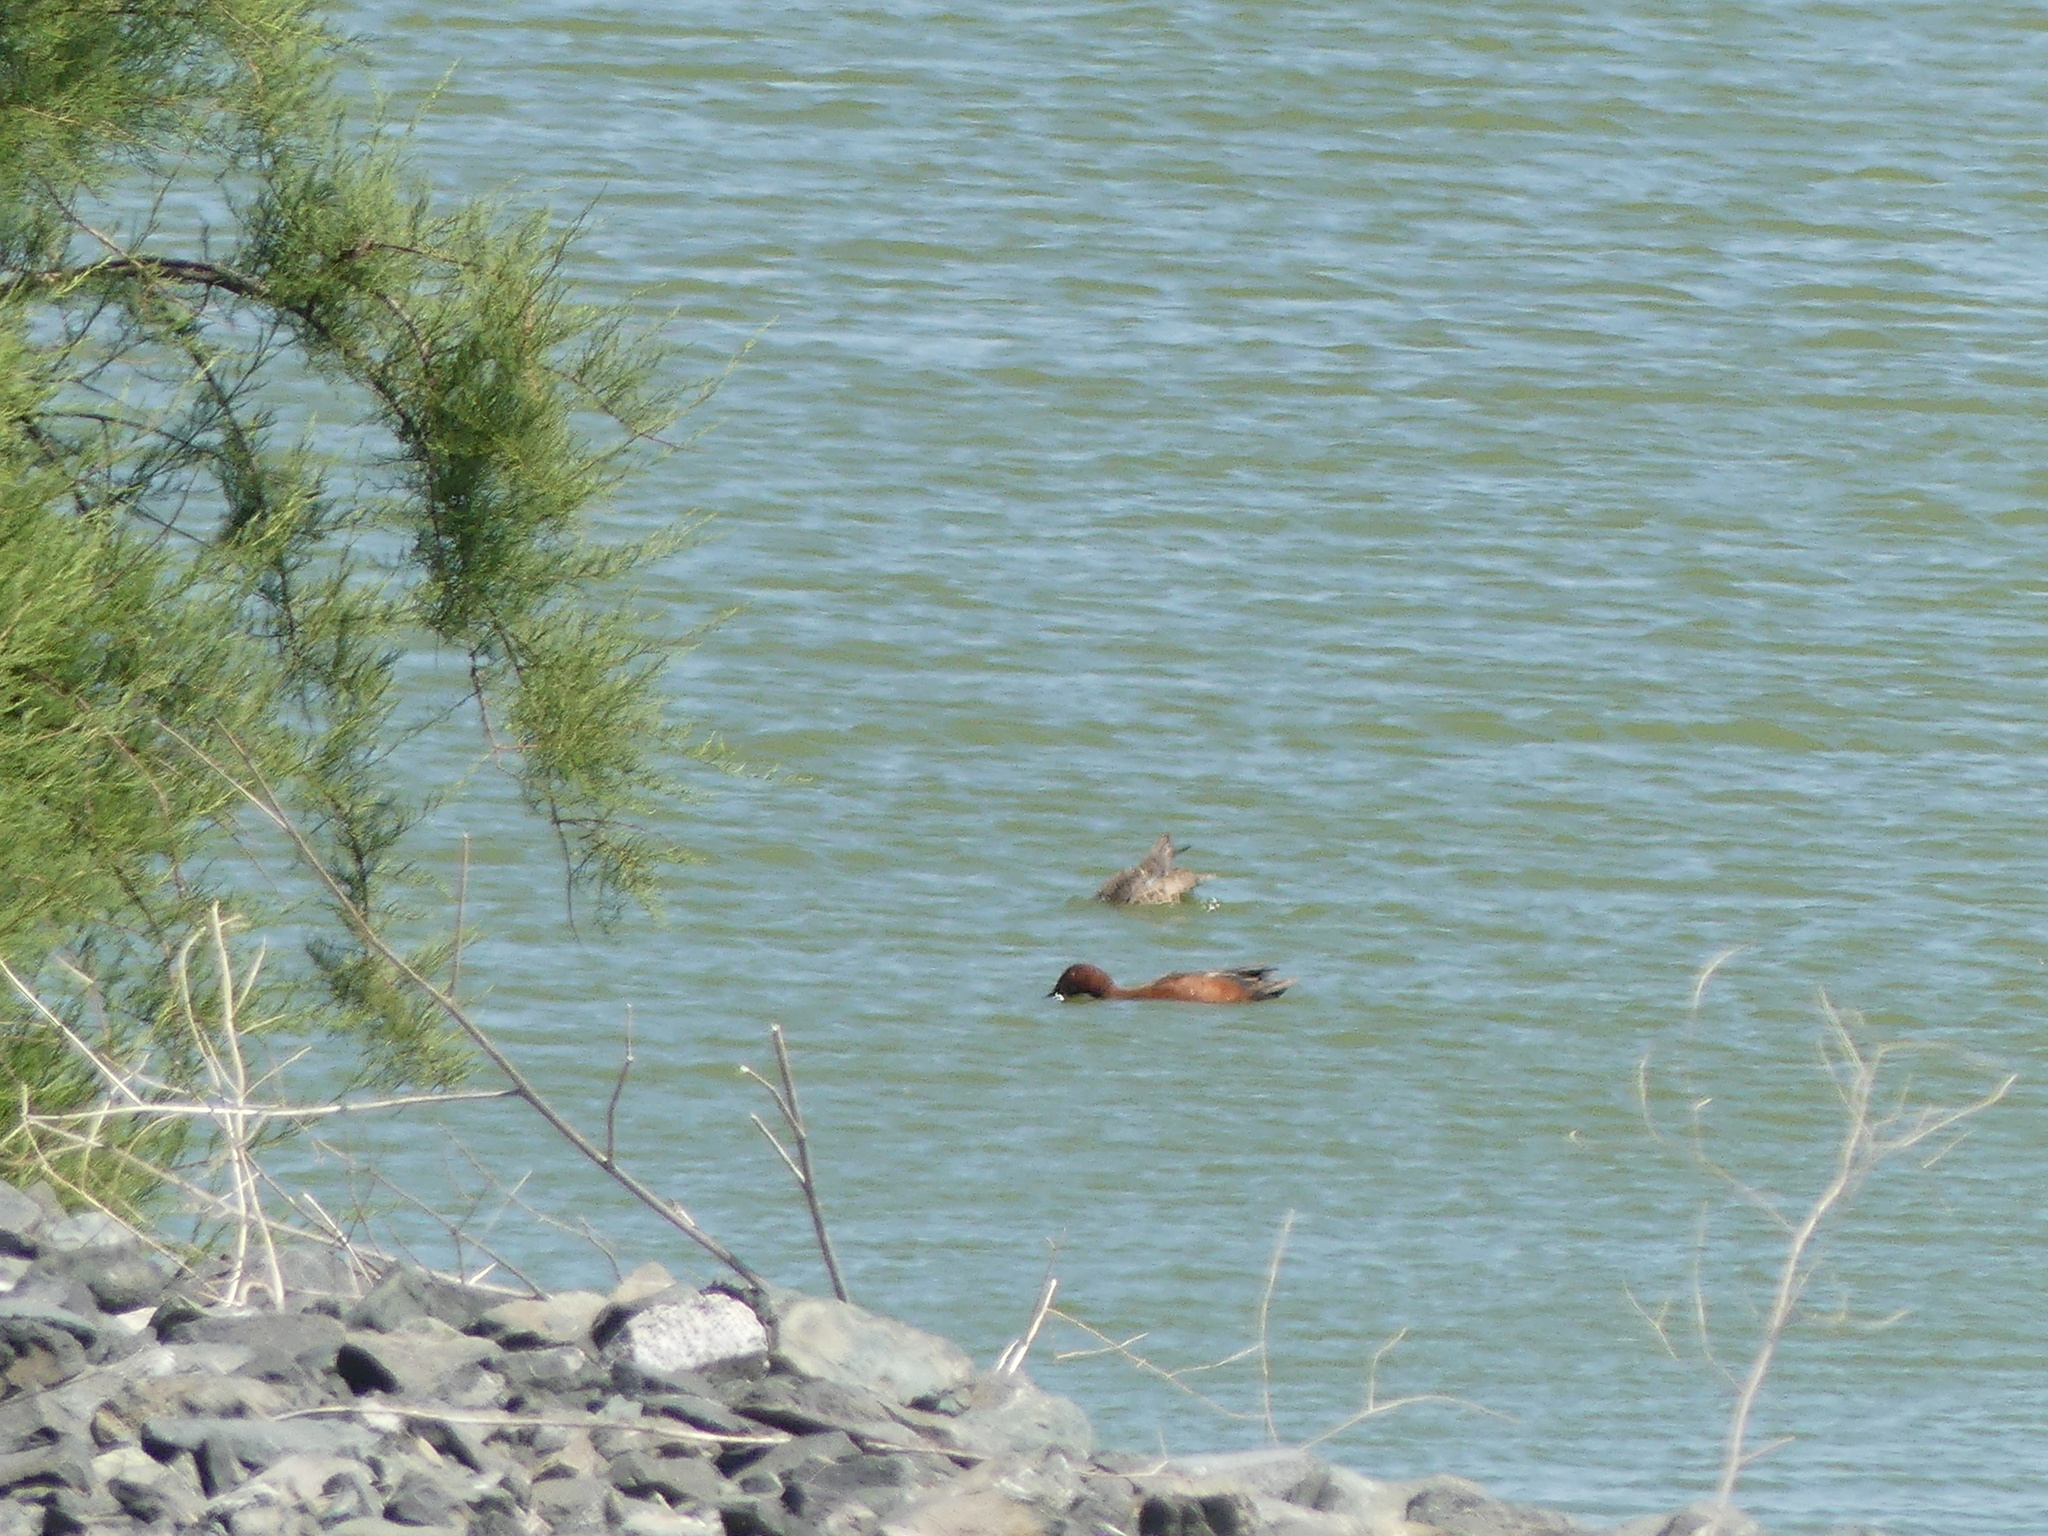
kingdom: Animalia
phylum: Chordata
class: Aves
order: Anseriformes
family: Anatidae
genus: Spatula
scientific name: Spatula cyanoptera
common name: Cinnamon teal
